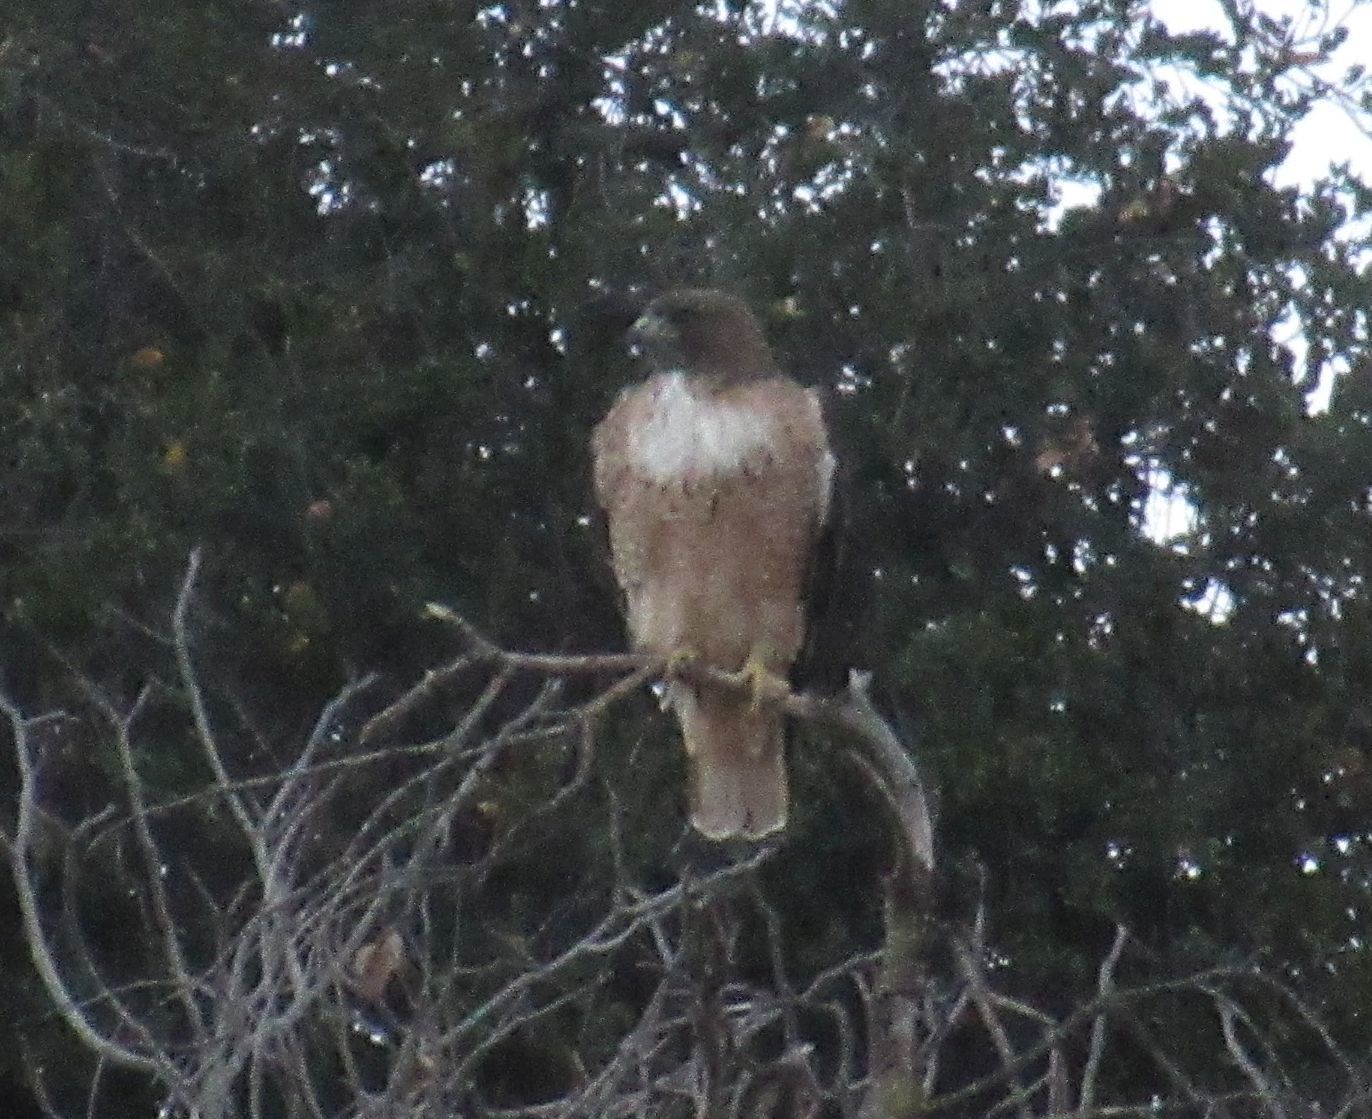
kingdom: Animalia
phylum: Chordata
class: Aves
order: Accipitriformes
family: Accipitridae
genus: Buteo
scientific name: Buteo jamaicensis
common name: Red-tailed hawk
